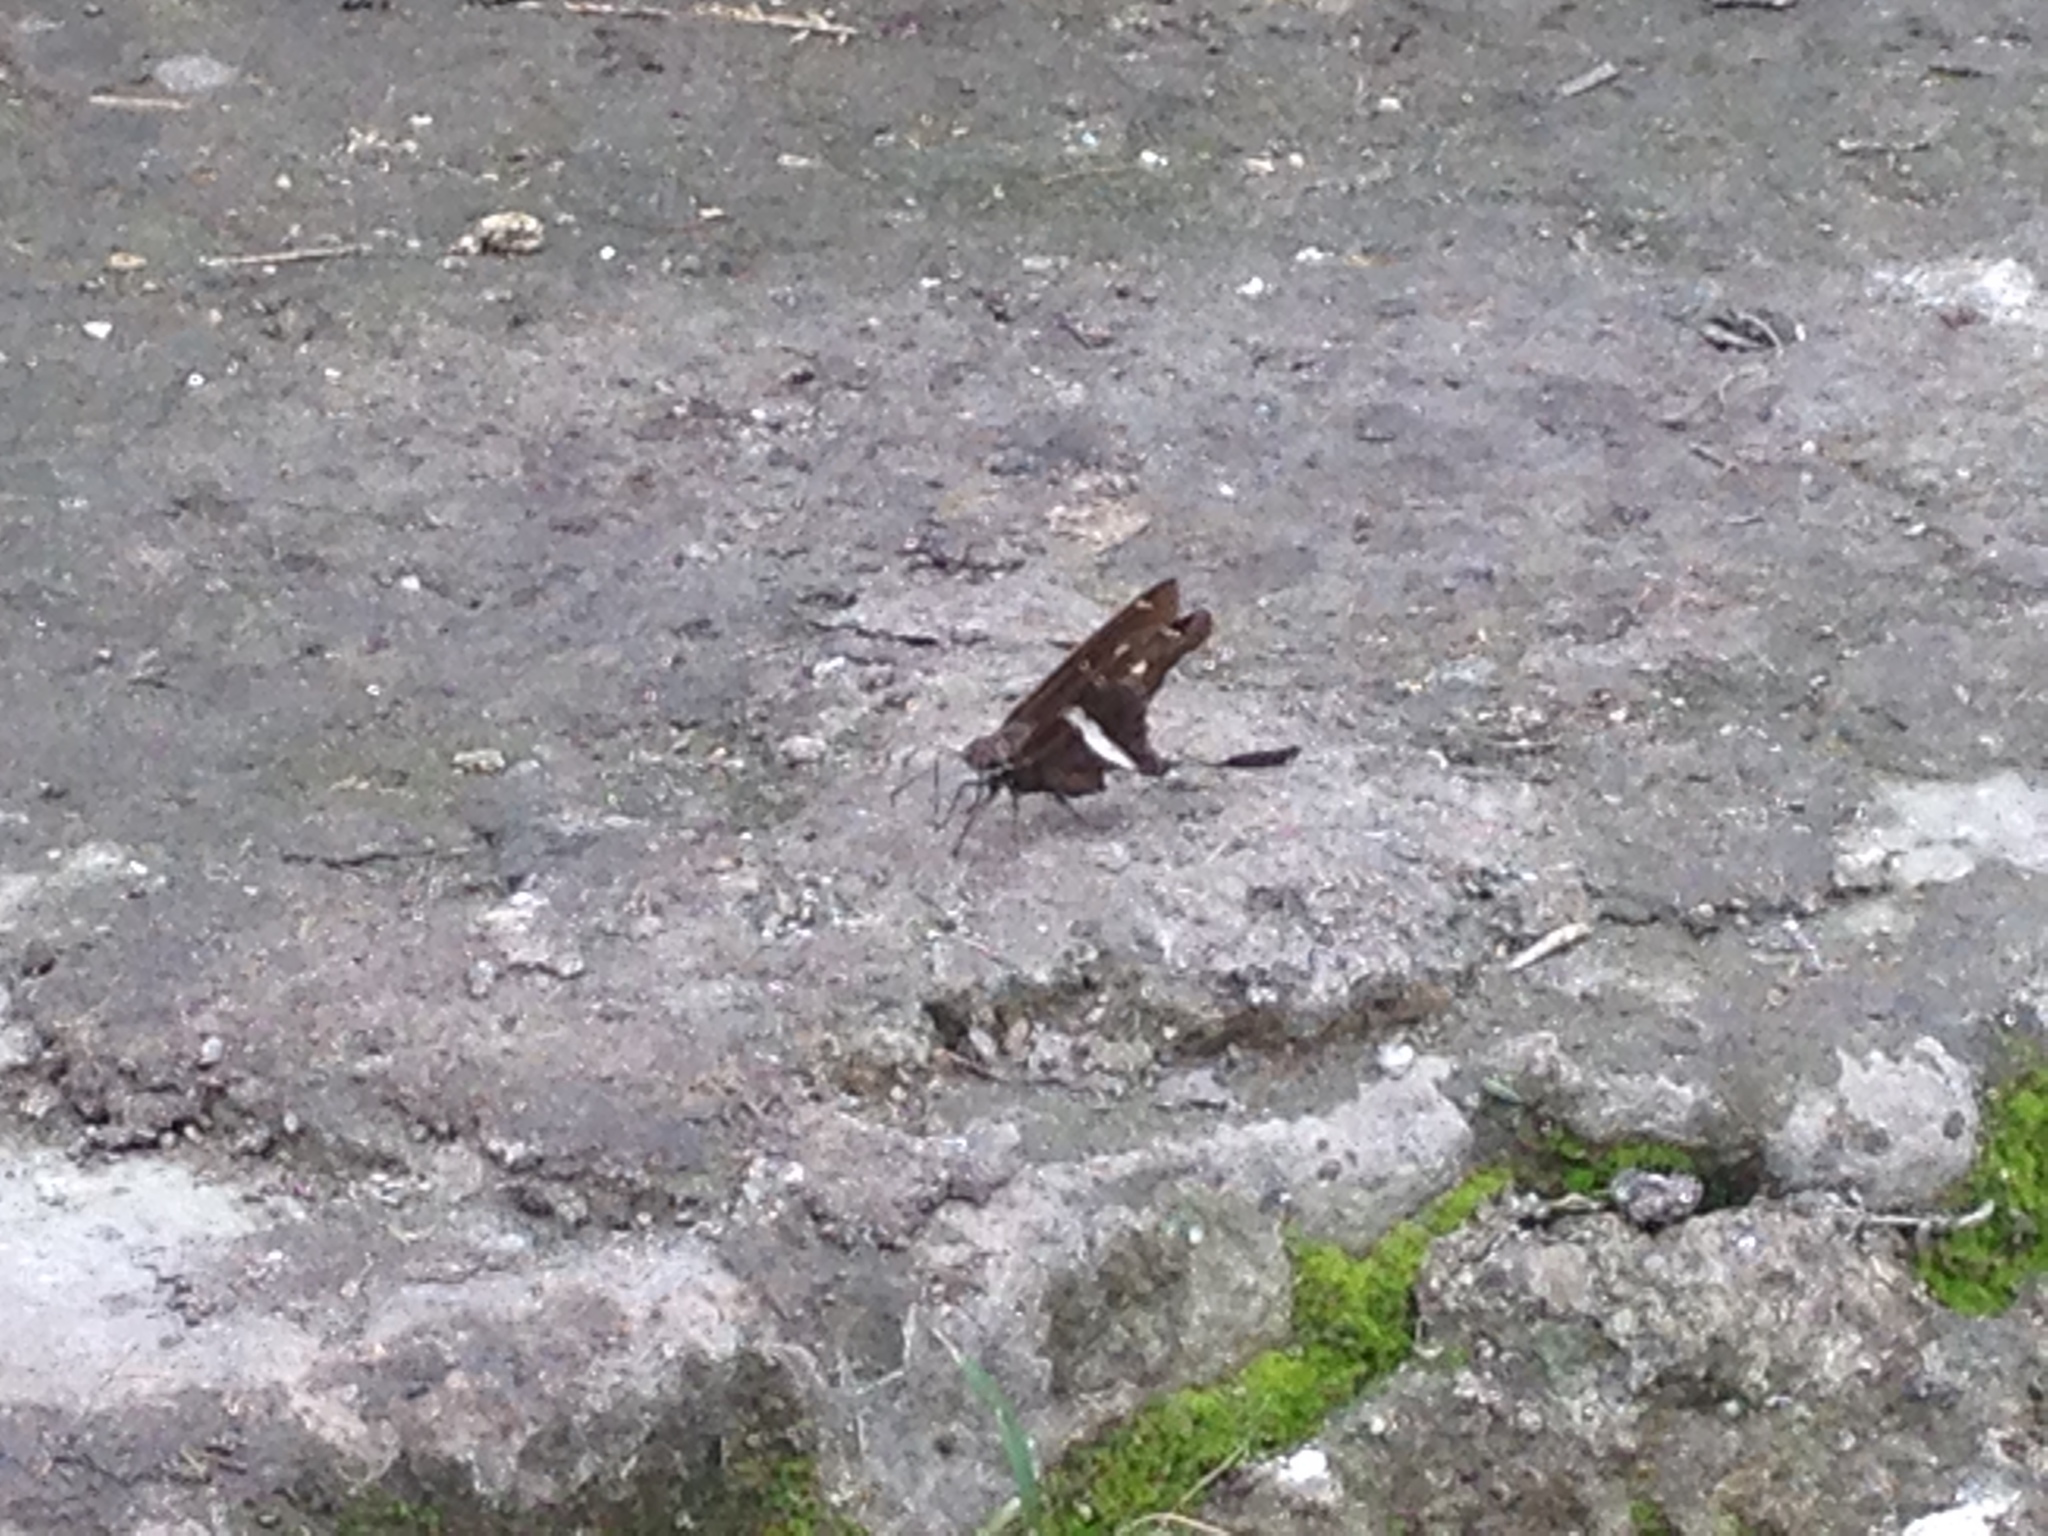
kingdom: Animalia
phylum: Arthropoda
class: Insecta
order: Lepidoptera
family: Hesperiidae
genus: Chioides
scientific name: Chioides catillus
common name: Silverbanded skipper
